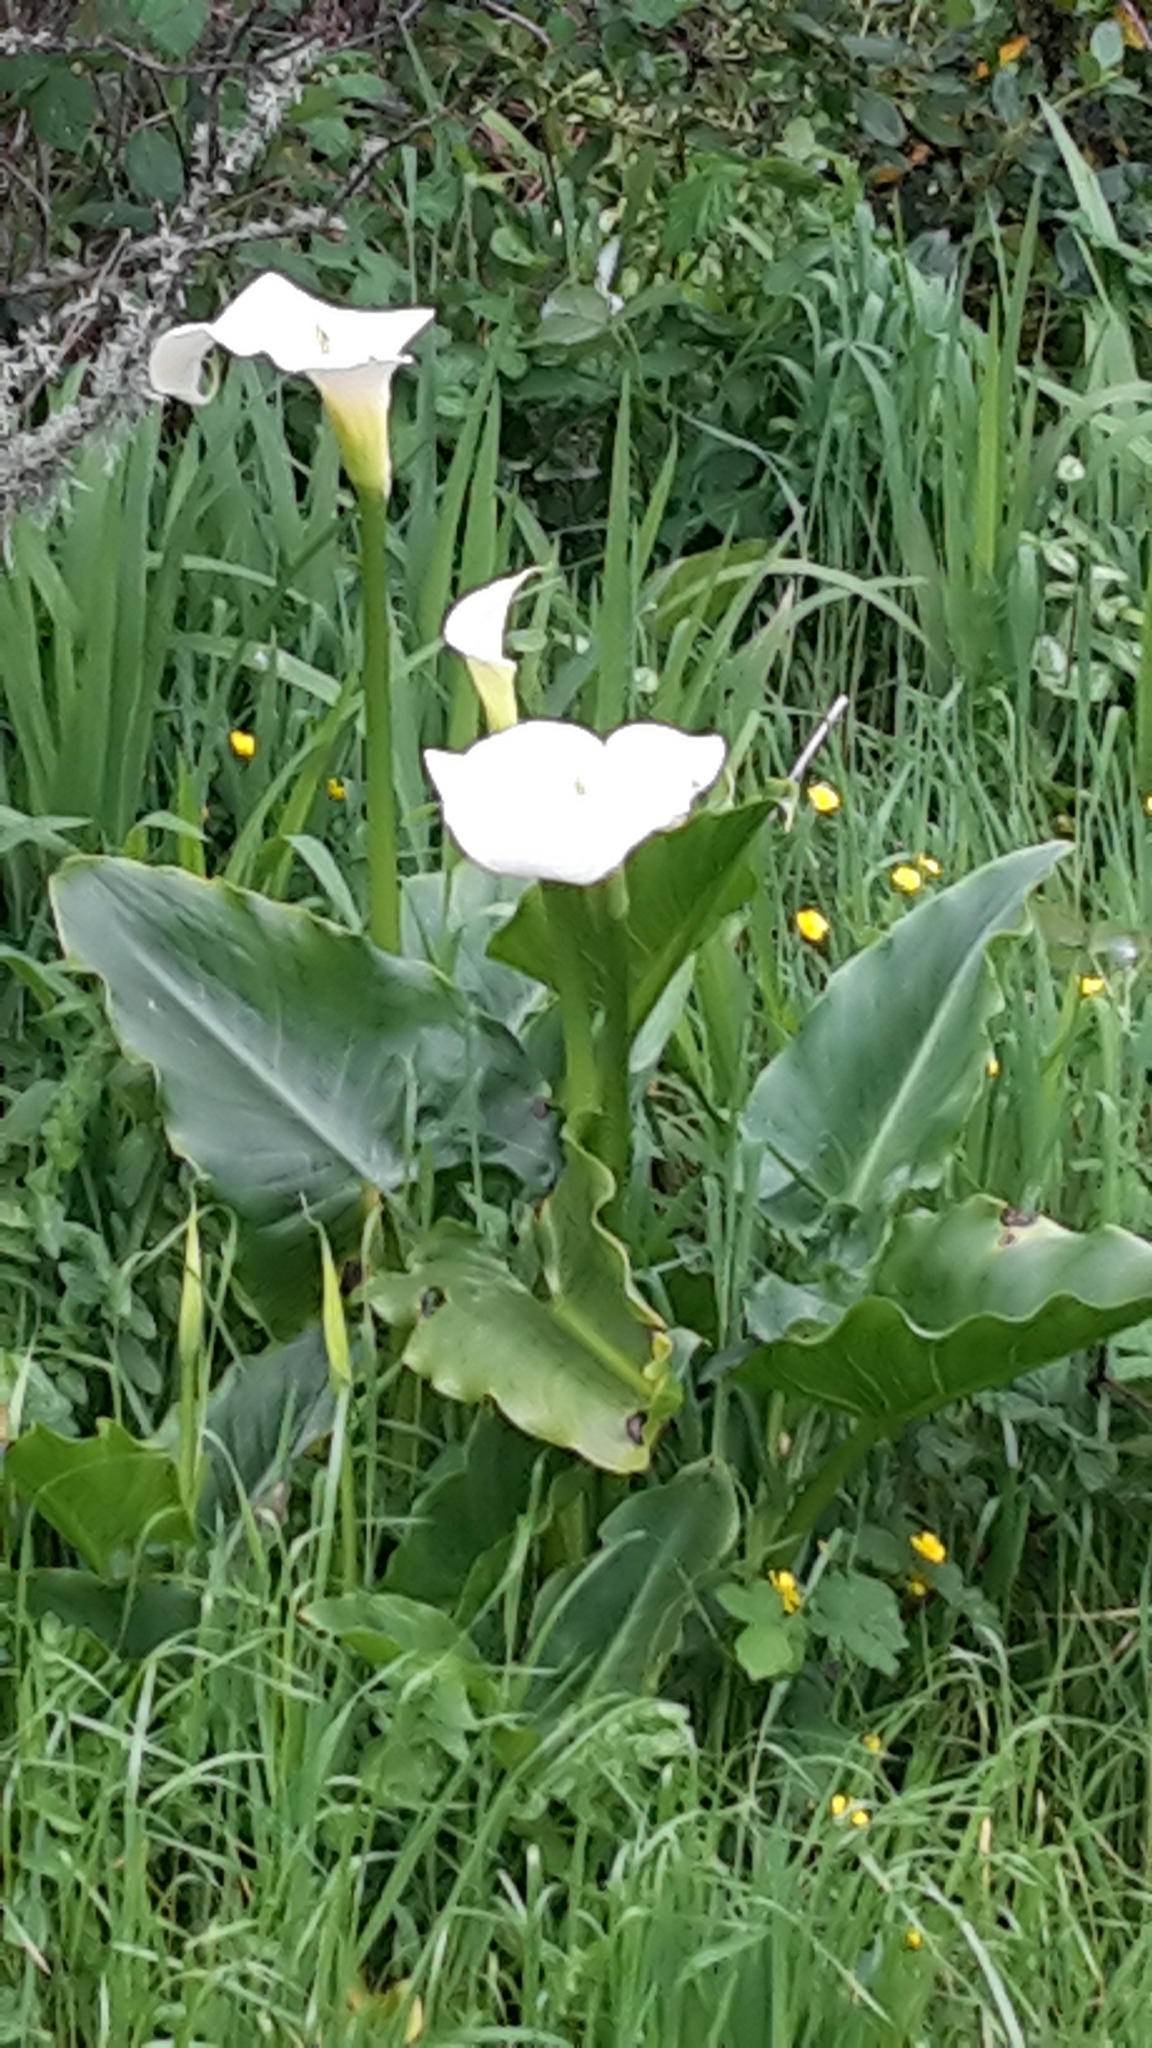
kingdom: Plantae
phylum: Tracheophyta
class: Liliopsida
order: Alismatales
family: Araceae
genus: Zantedeschia
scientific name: Zantedeschia aethiopica
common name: Altar-lily
